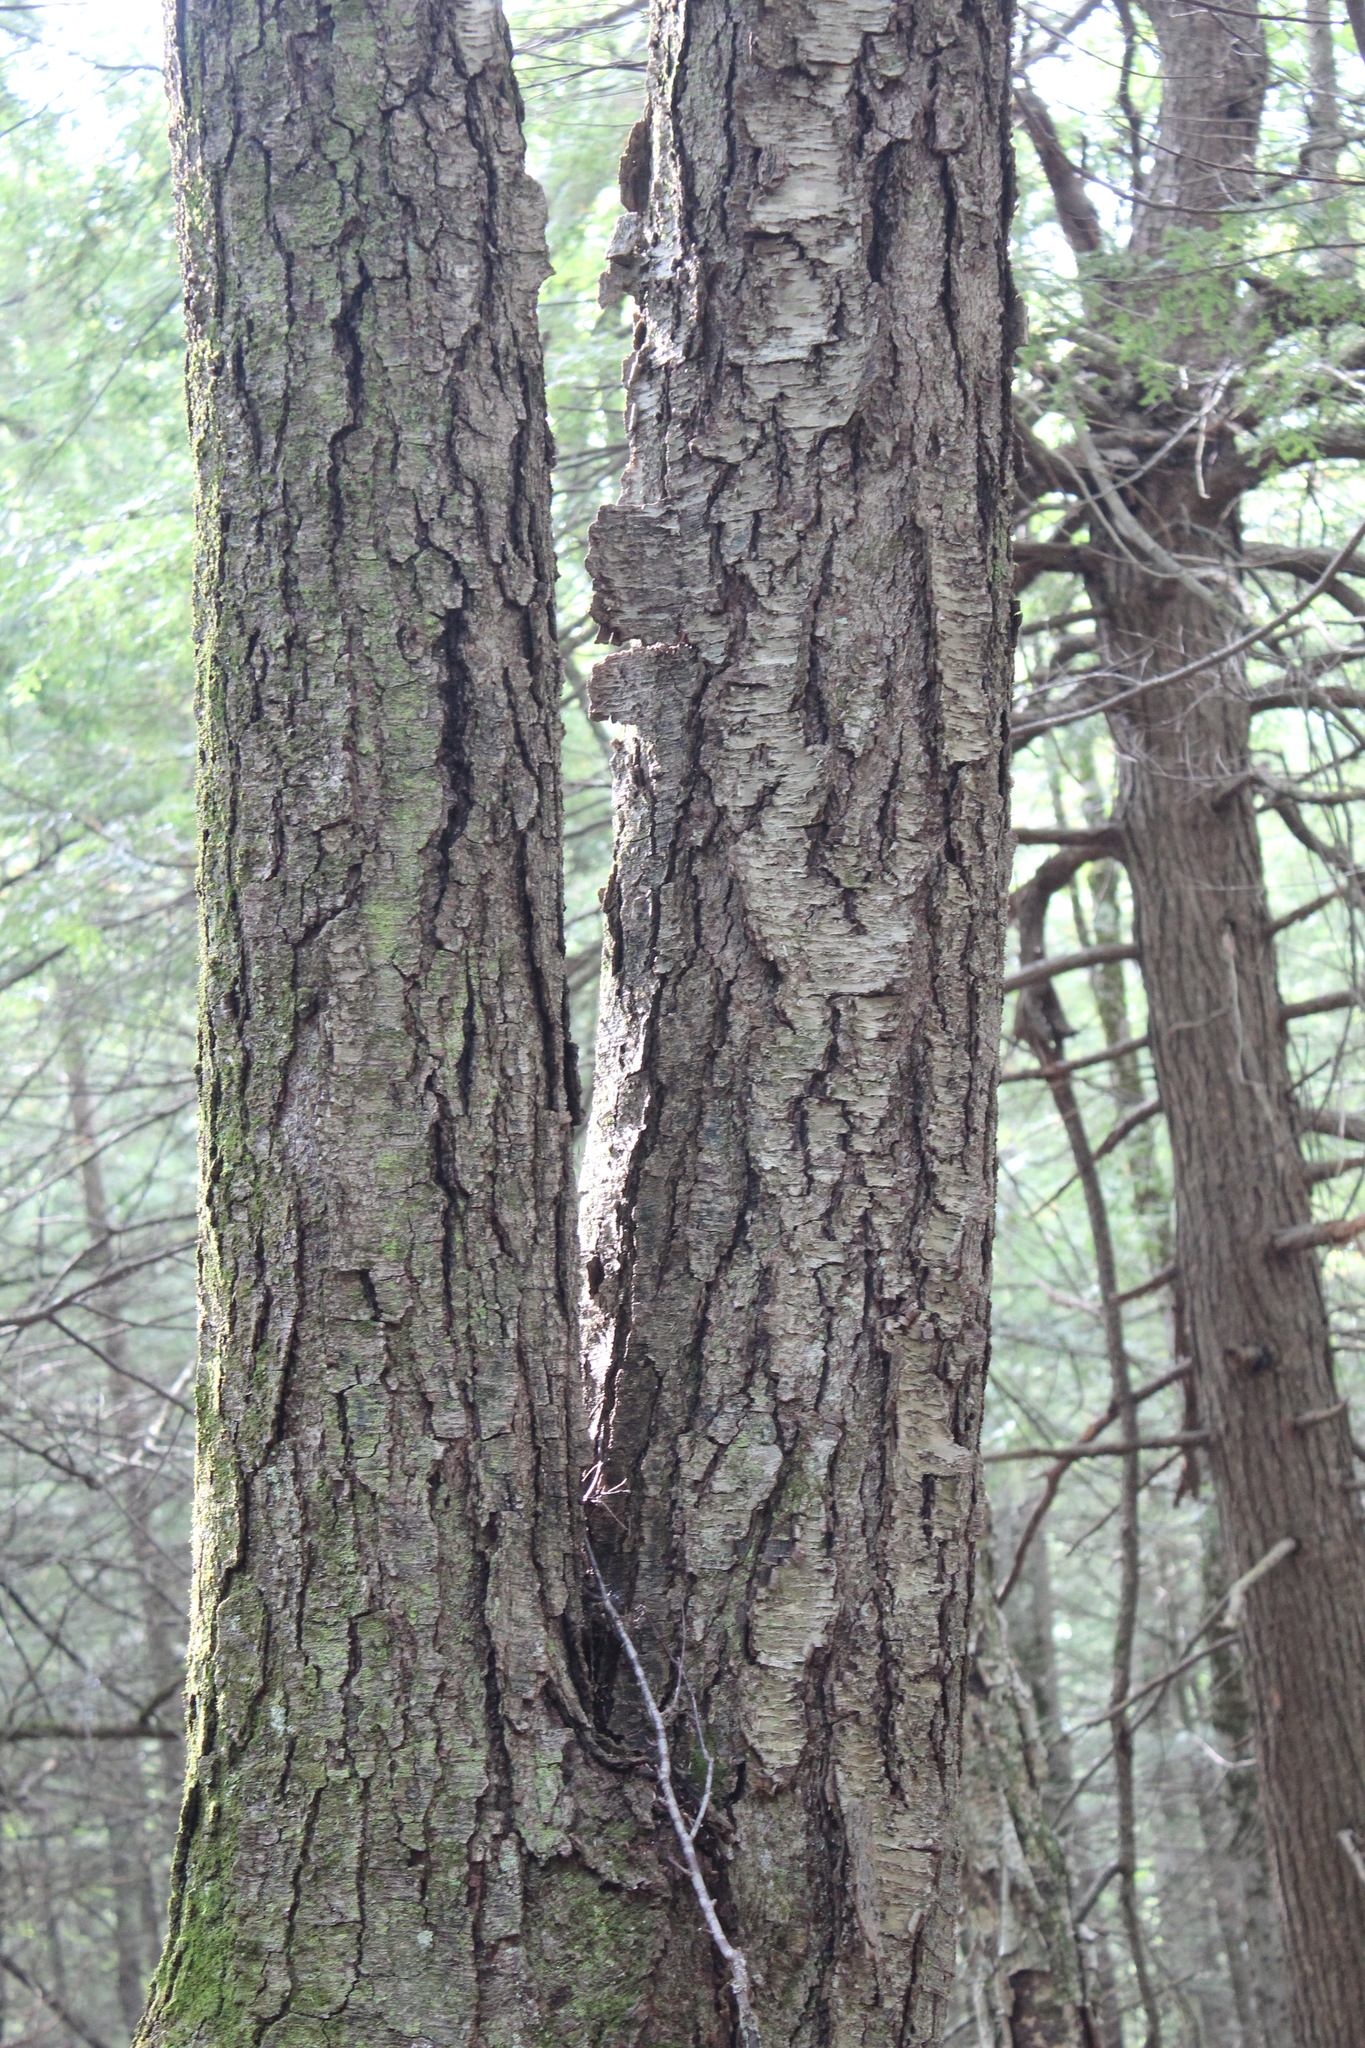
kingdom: Plantae
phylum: Tracheophyta
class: Magnoliopsida
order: Fagales
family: Betulaceae
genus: Betula
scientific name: Betula lenta
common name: Black birch
